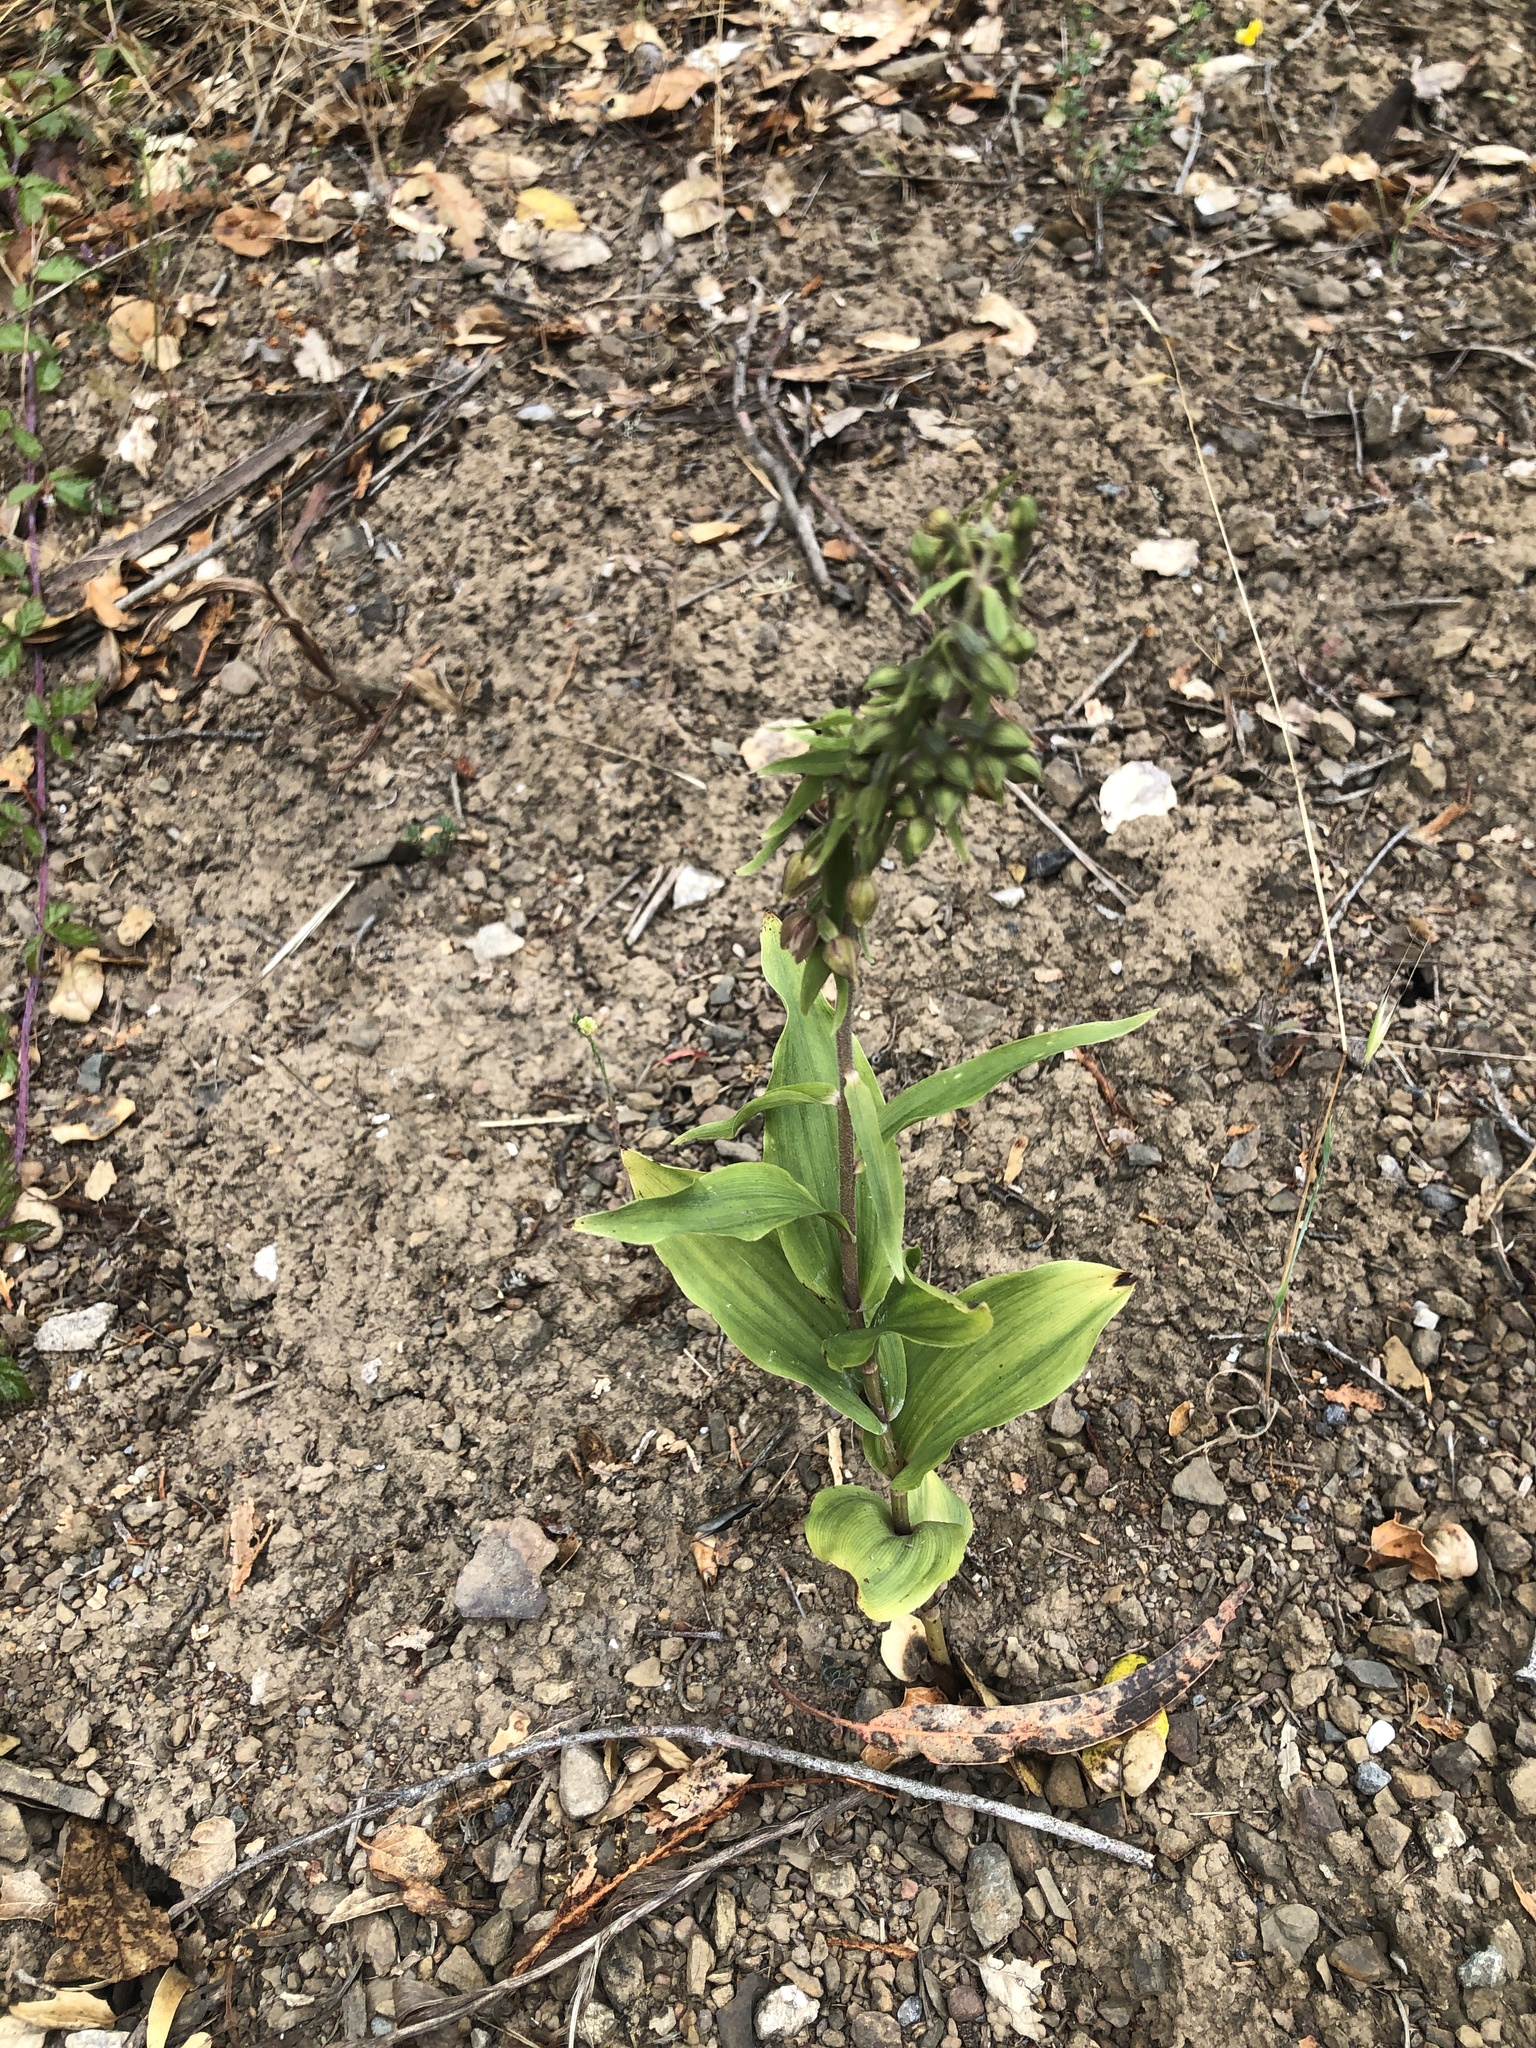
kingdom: Plantae
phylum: Tracheophyta
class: Liliopsida
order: Asparagales
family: Orchidaceae
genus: Epipactis
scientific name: Epipactis helleborine
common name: Broad-leaved helleborine
